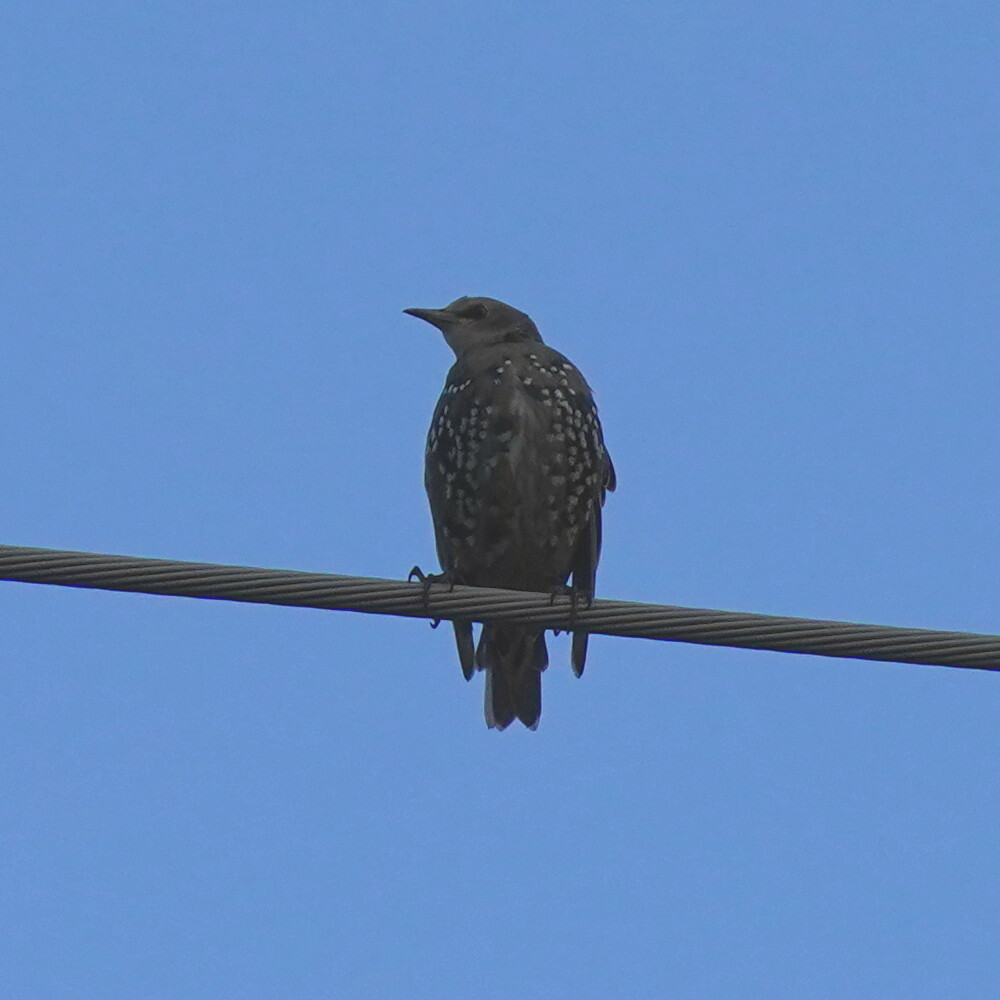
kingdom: Animalia
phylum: Chordata
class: Aves
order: Passeriformes
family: Sturnidae
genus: Sturnus
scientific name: Sturnus vulgaris
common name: Common starling
